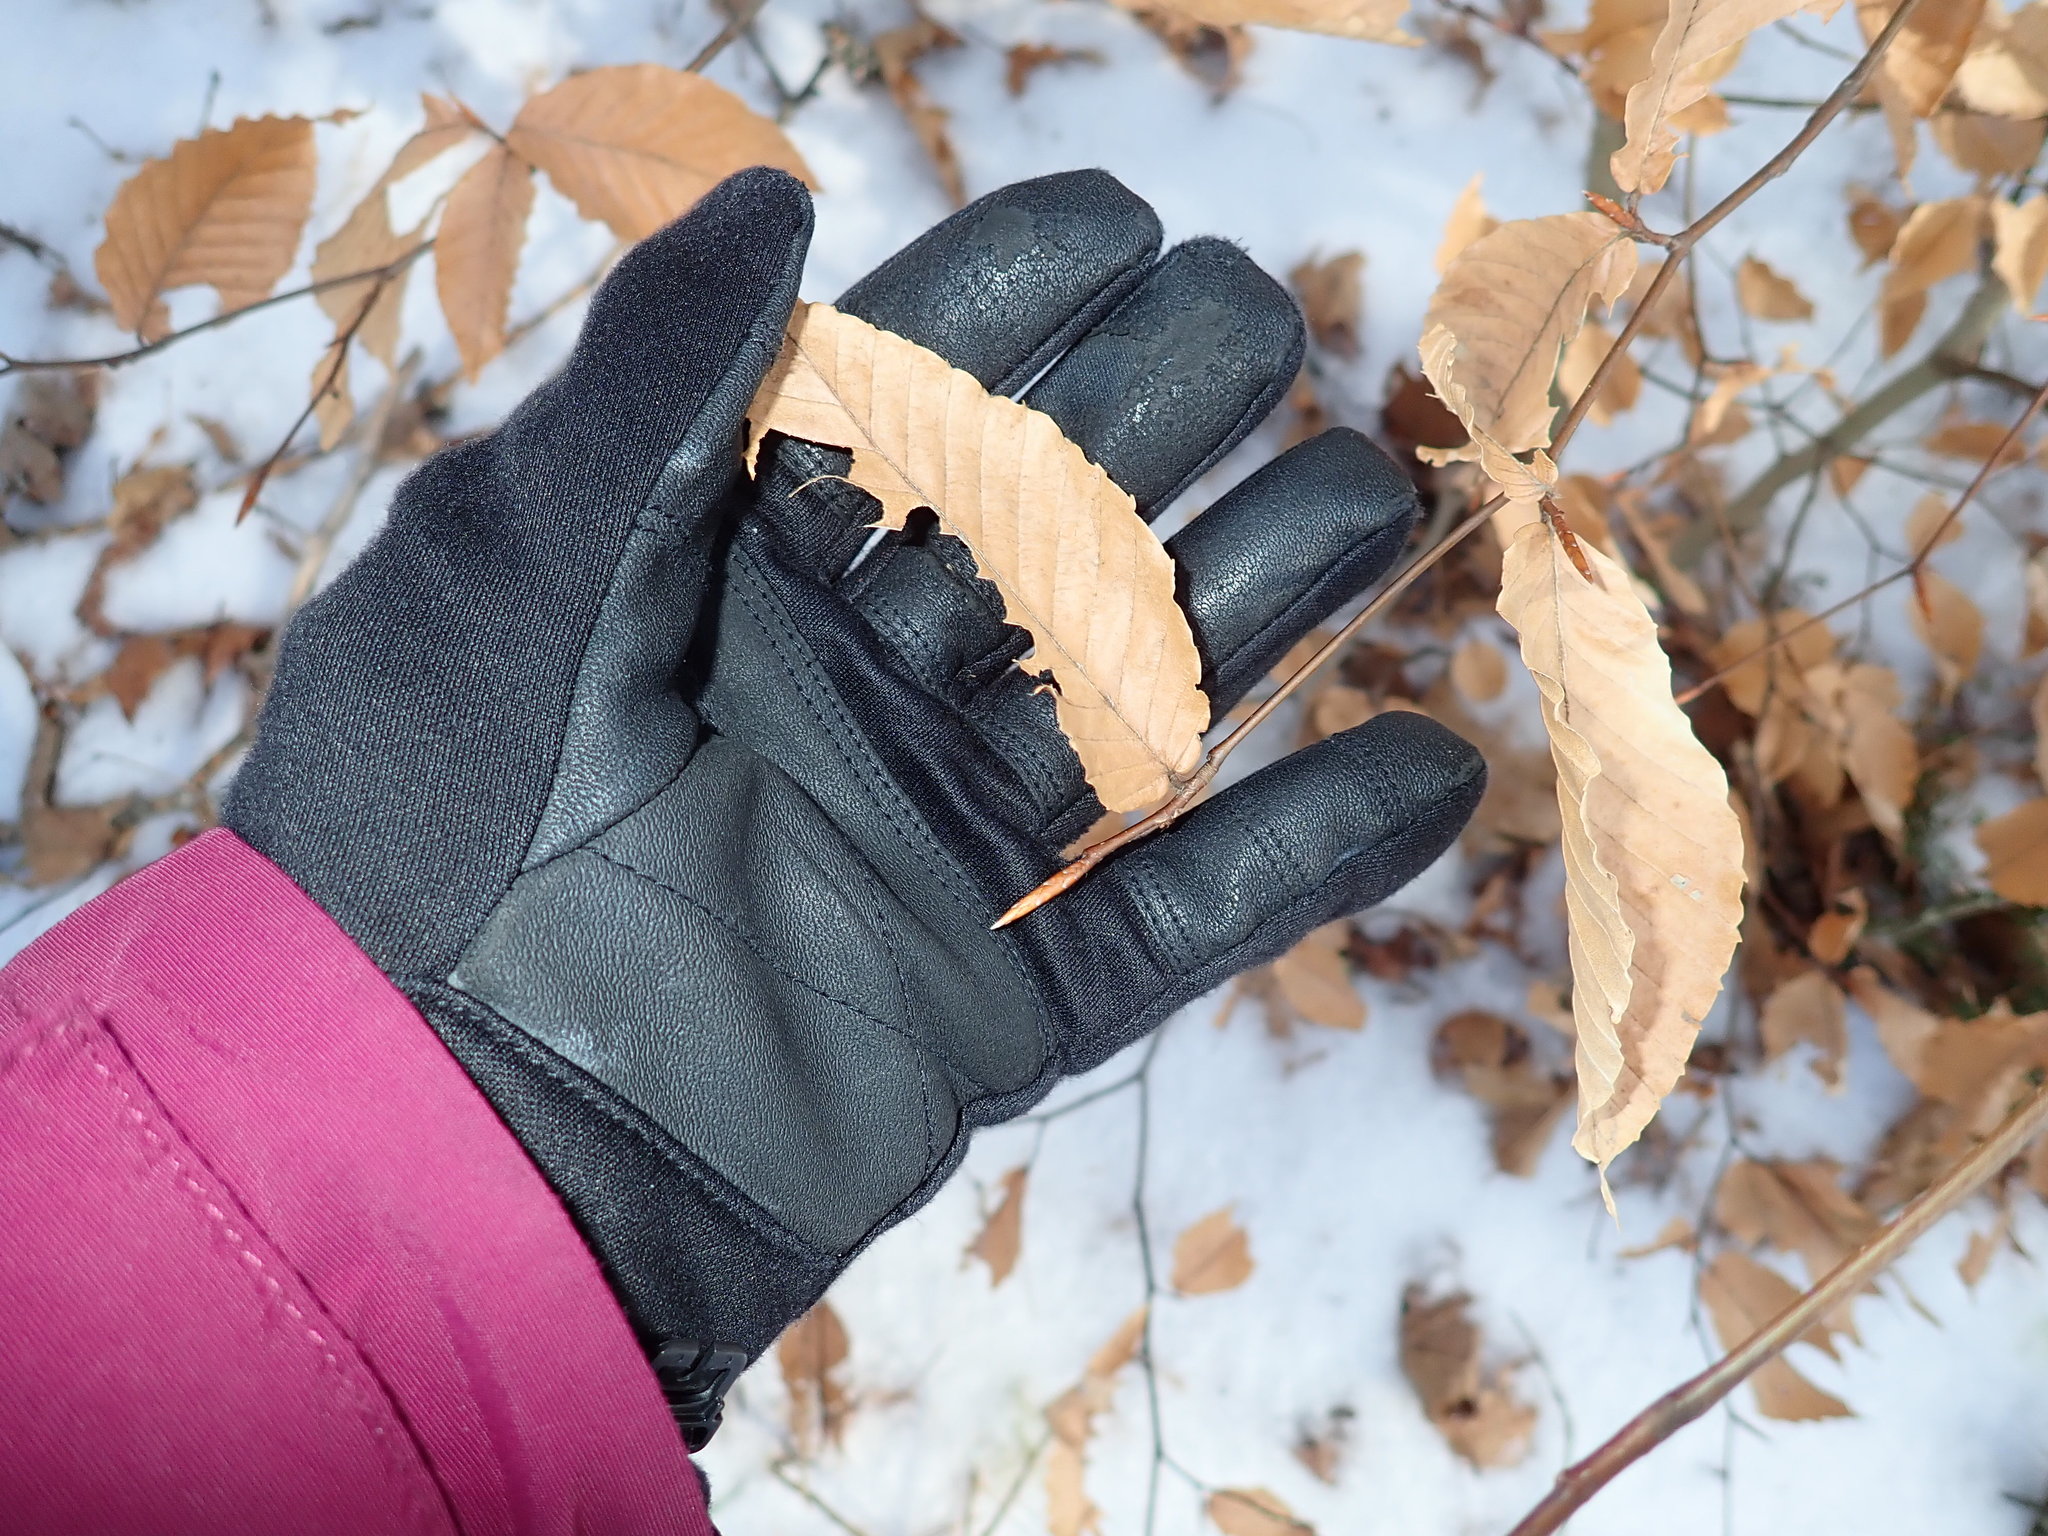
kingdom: Plantae
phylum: Tracheophyta
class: Magnoliopsida
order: Fagales
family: Fagaceae
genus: Fagus
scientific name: Fagus grandifolia
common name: American beech
